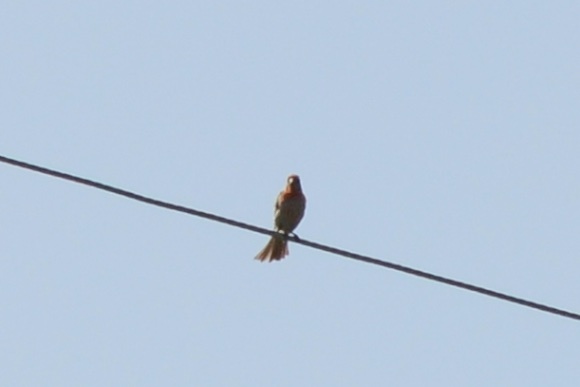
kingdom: Animalia
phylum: Chordata
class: Aves
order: Passeriformes
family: Fringillidae
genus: Haemorhous
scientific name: Haemorhous mexicanus
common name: House finch
